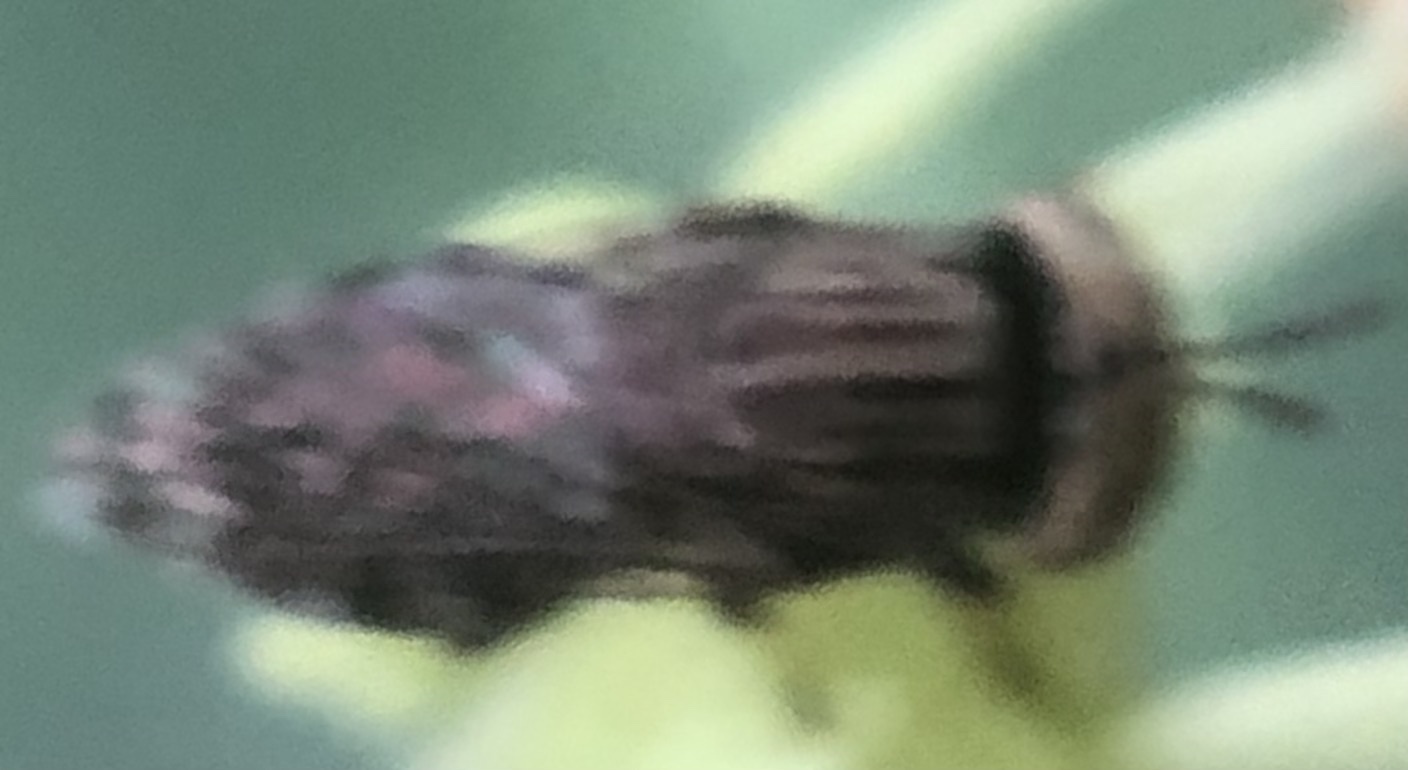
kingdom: Animalia
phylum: Arthropoda
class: Insecta
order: Diptera
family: Syrphidae
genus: Orthonevra
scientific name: Orthonevra nitida
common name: Wavy mucksucker
